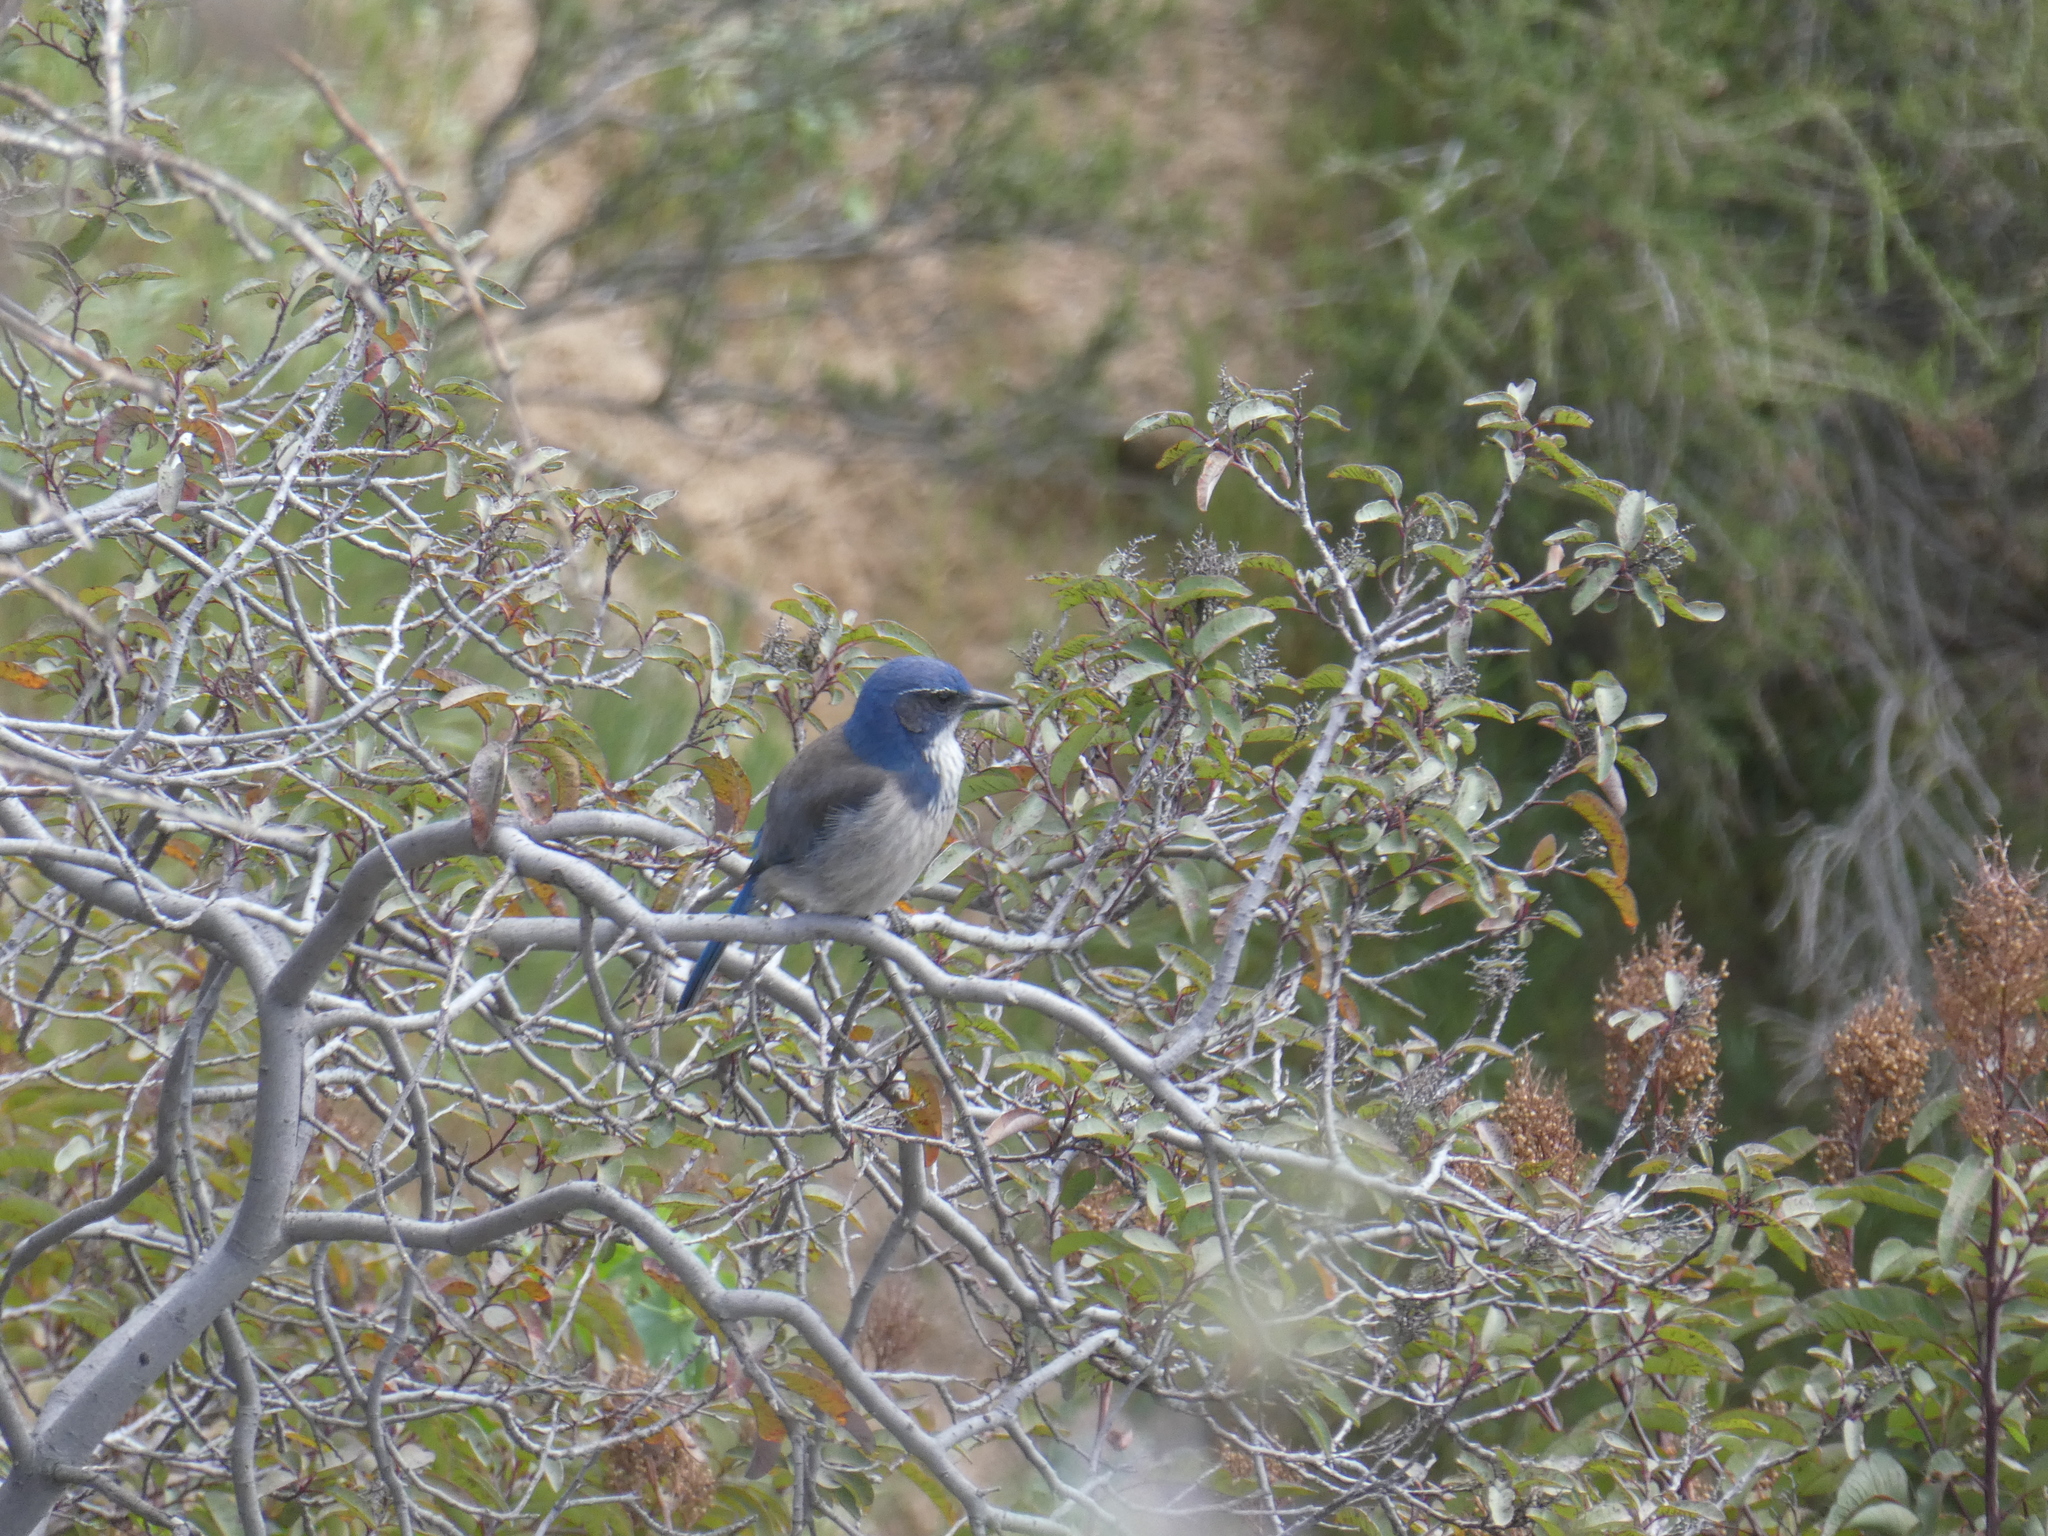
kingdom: Animalia
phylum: Chordata
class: Aves
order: Passeriformes
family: Corvidae
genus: Aphelocoma
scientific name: Aphelocoma californica
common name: California scrub-jay
